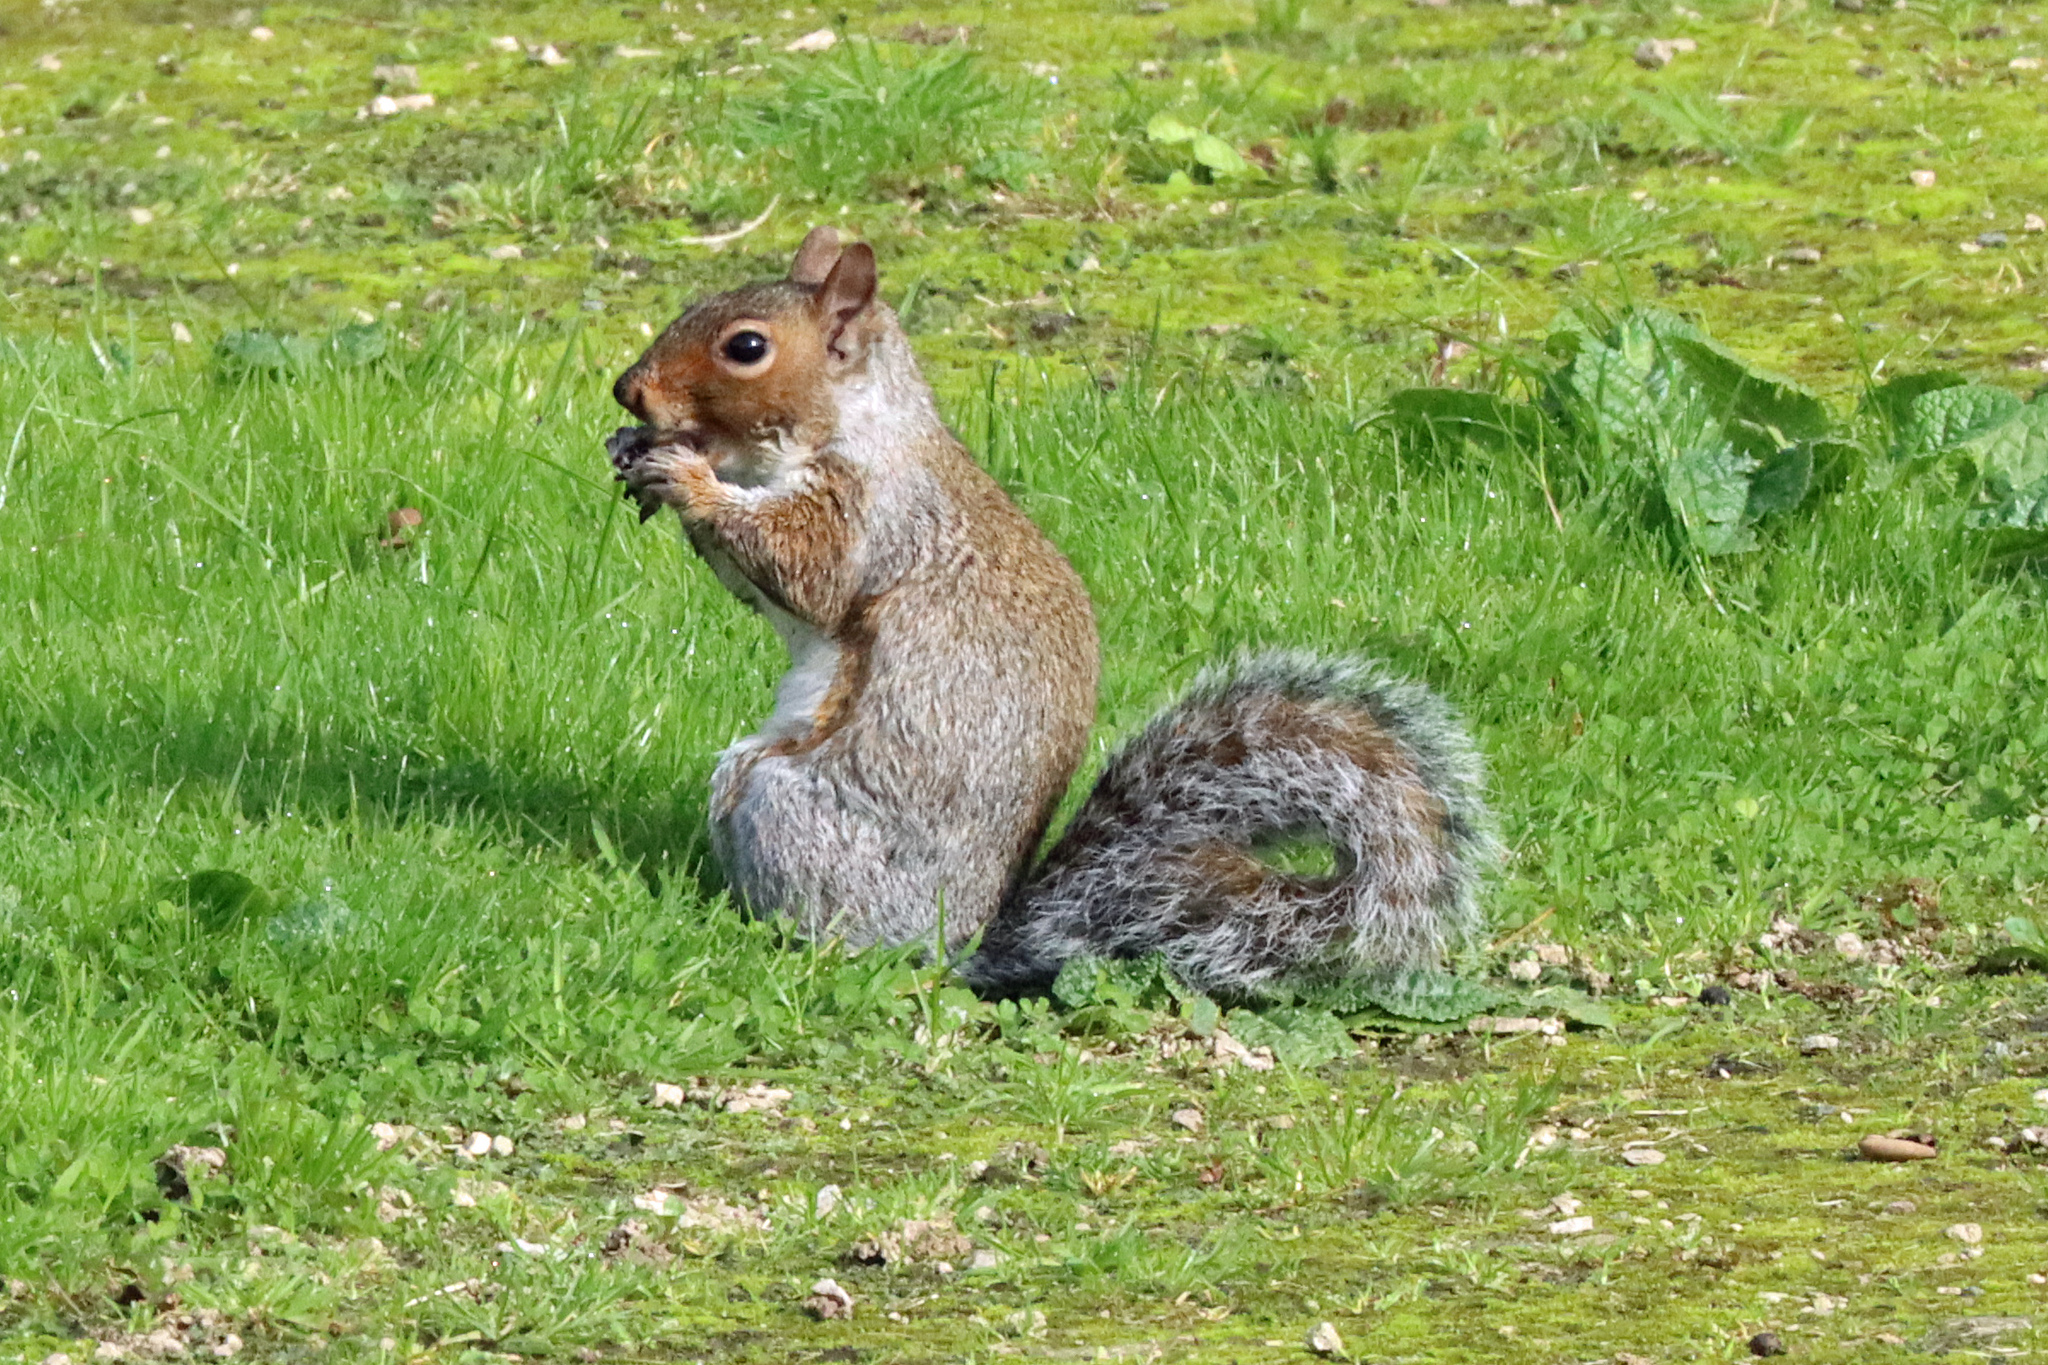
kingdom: Animalia
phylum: Chordata
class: Mammalia
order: Rodentia
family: Sciuridae
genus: Sciurus
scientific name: Sciurus carolinensis
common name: Eastern gray squirrel
